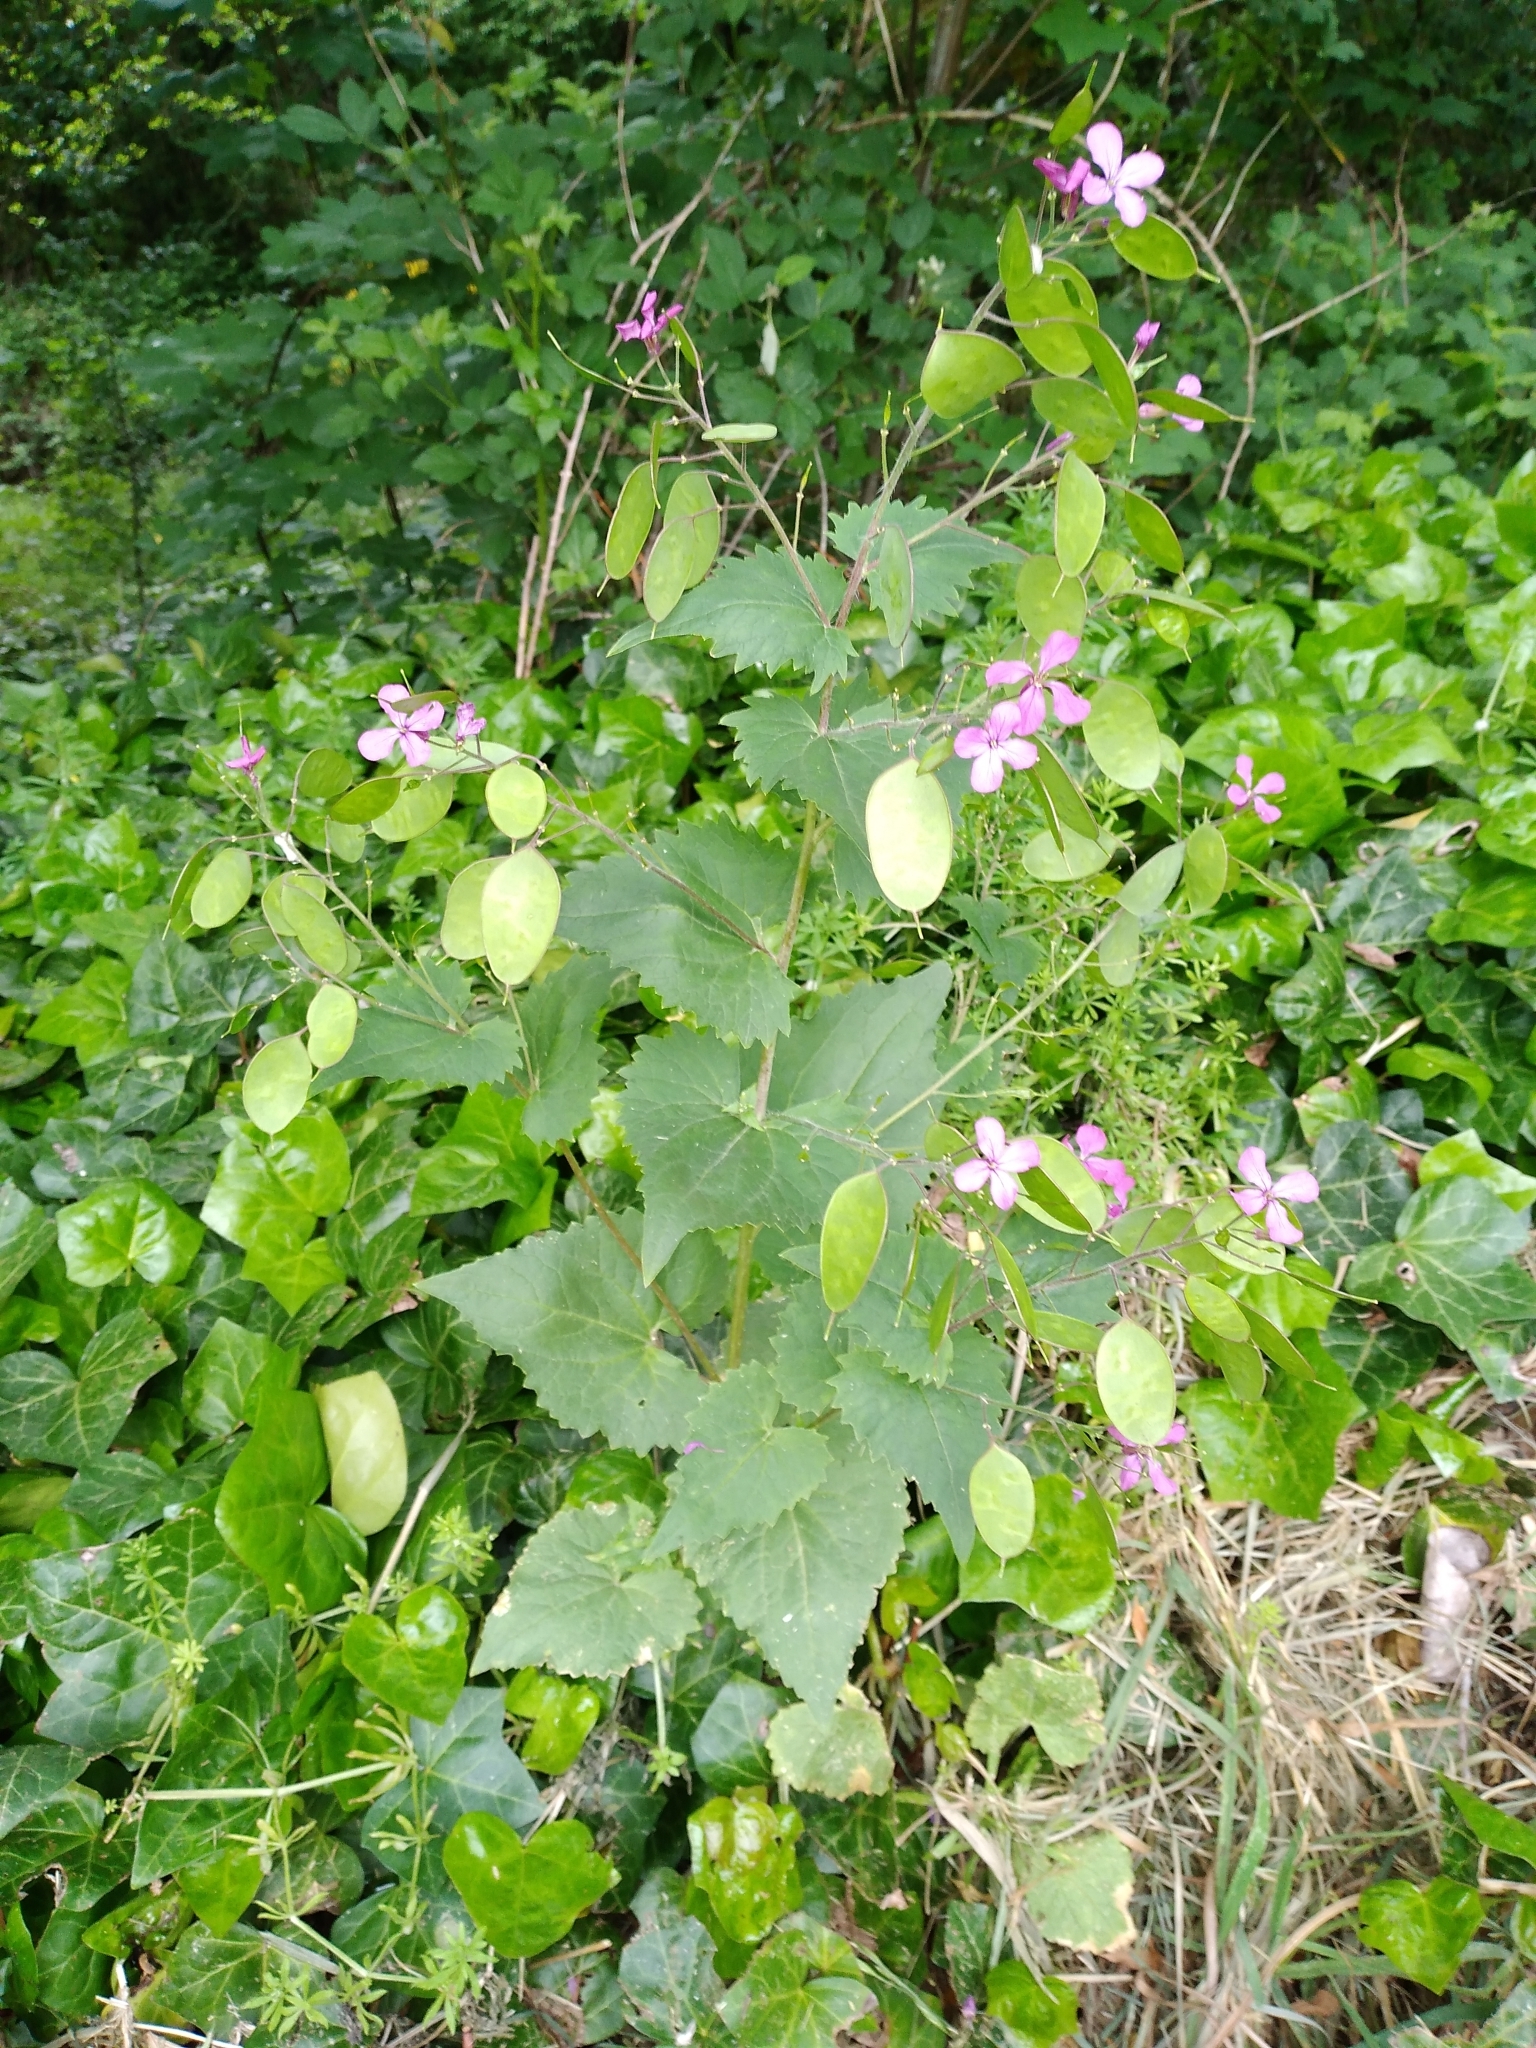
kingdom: Plantae
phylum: Tracheophyta
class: Magnoliopsida
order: Brassicales
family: Brassicaceae
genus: Lunaria
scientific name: Lunaria annua
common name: Honesty
